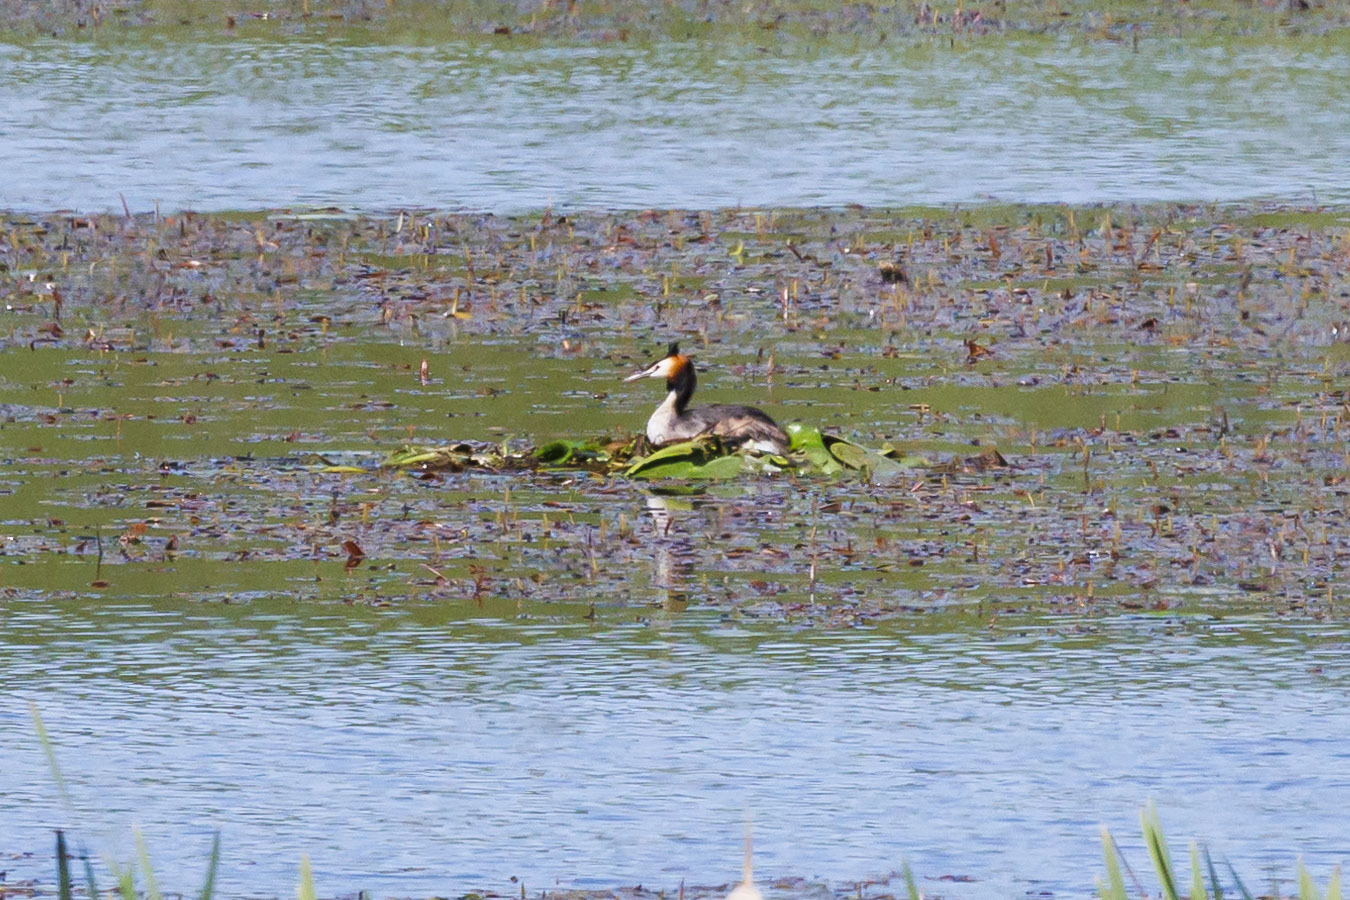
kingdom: Animalia
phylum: Chordata
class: Aves
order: Podicipediformes
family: Podicipedidae
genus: Podiceps
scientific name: Podiceps cristatus
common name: Great crested grebe
